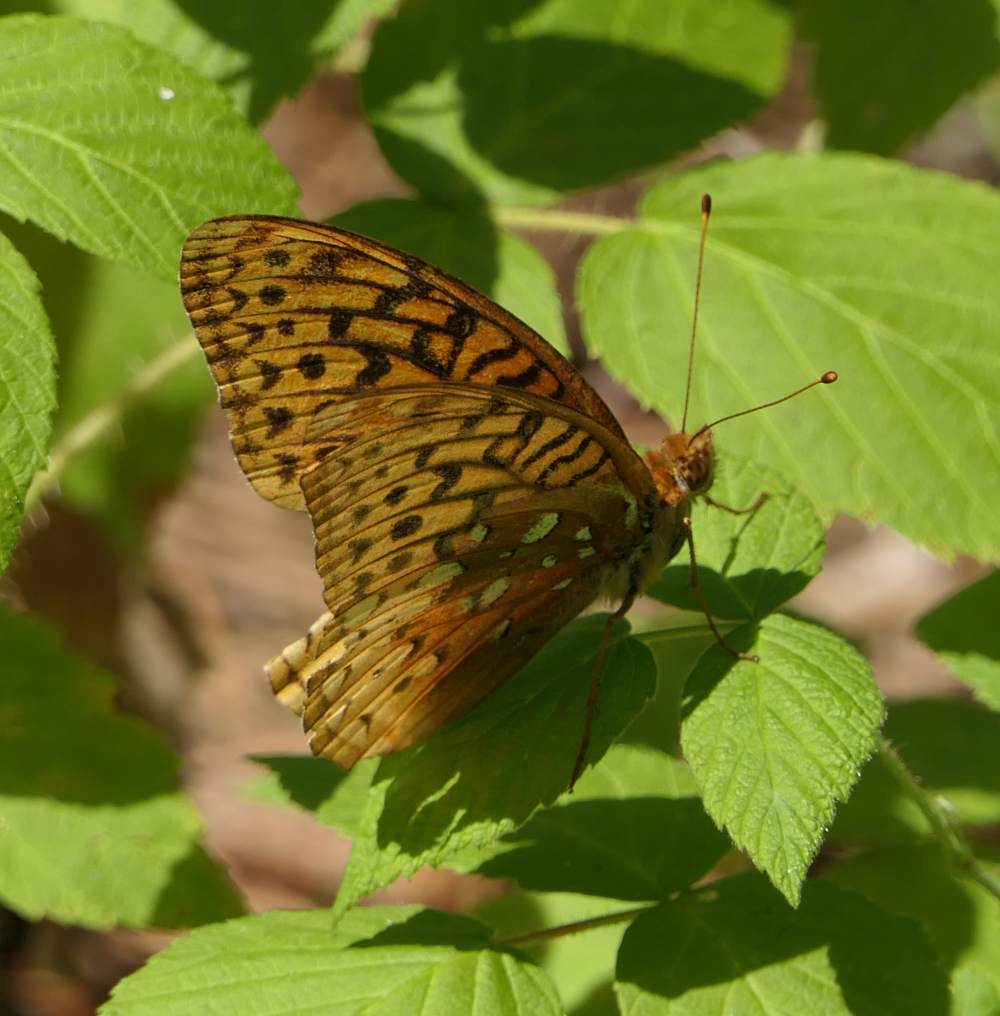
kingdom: Animalia
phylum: Arthropoda
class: Insecta
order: Lepidoptera
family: Nymphalidae
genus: Speyeria
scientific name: Speyeria cybele
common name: Great spangled fritillary
